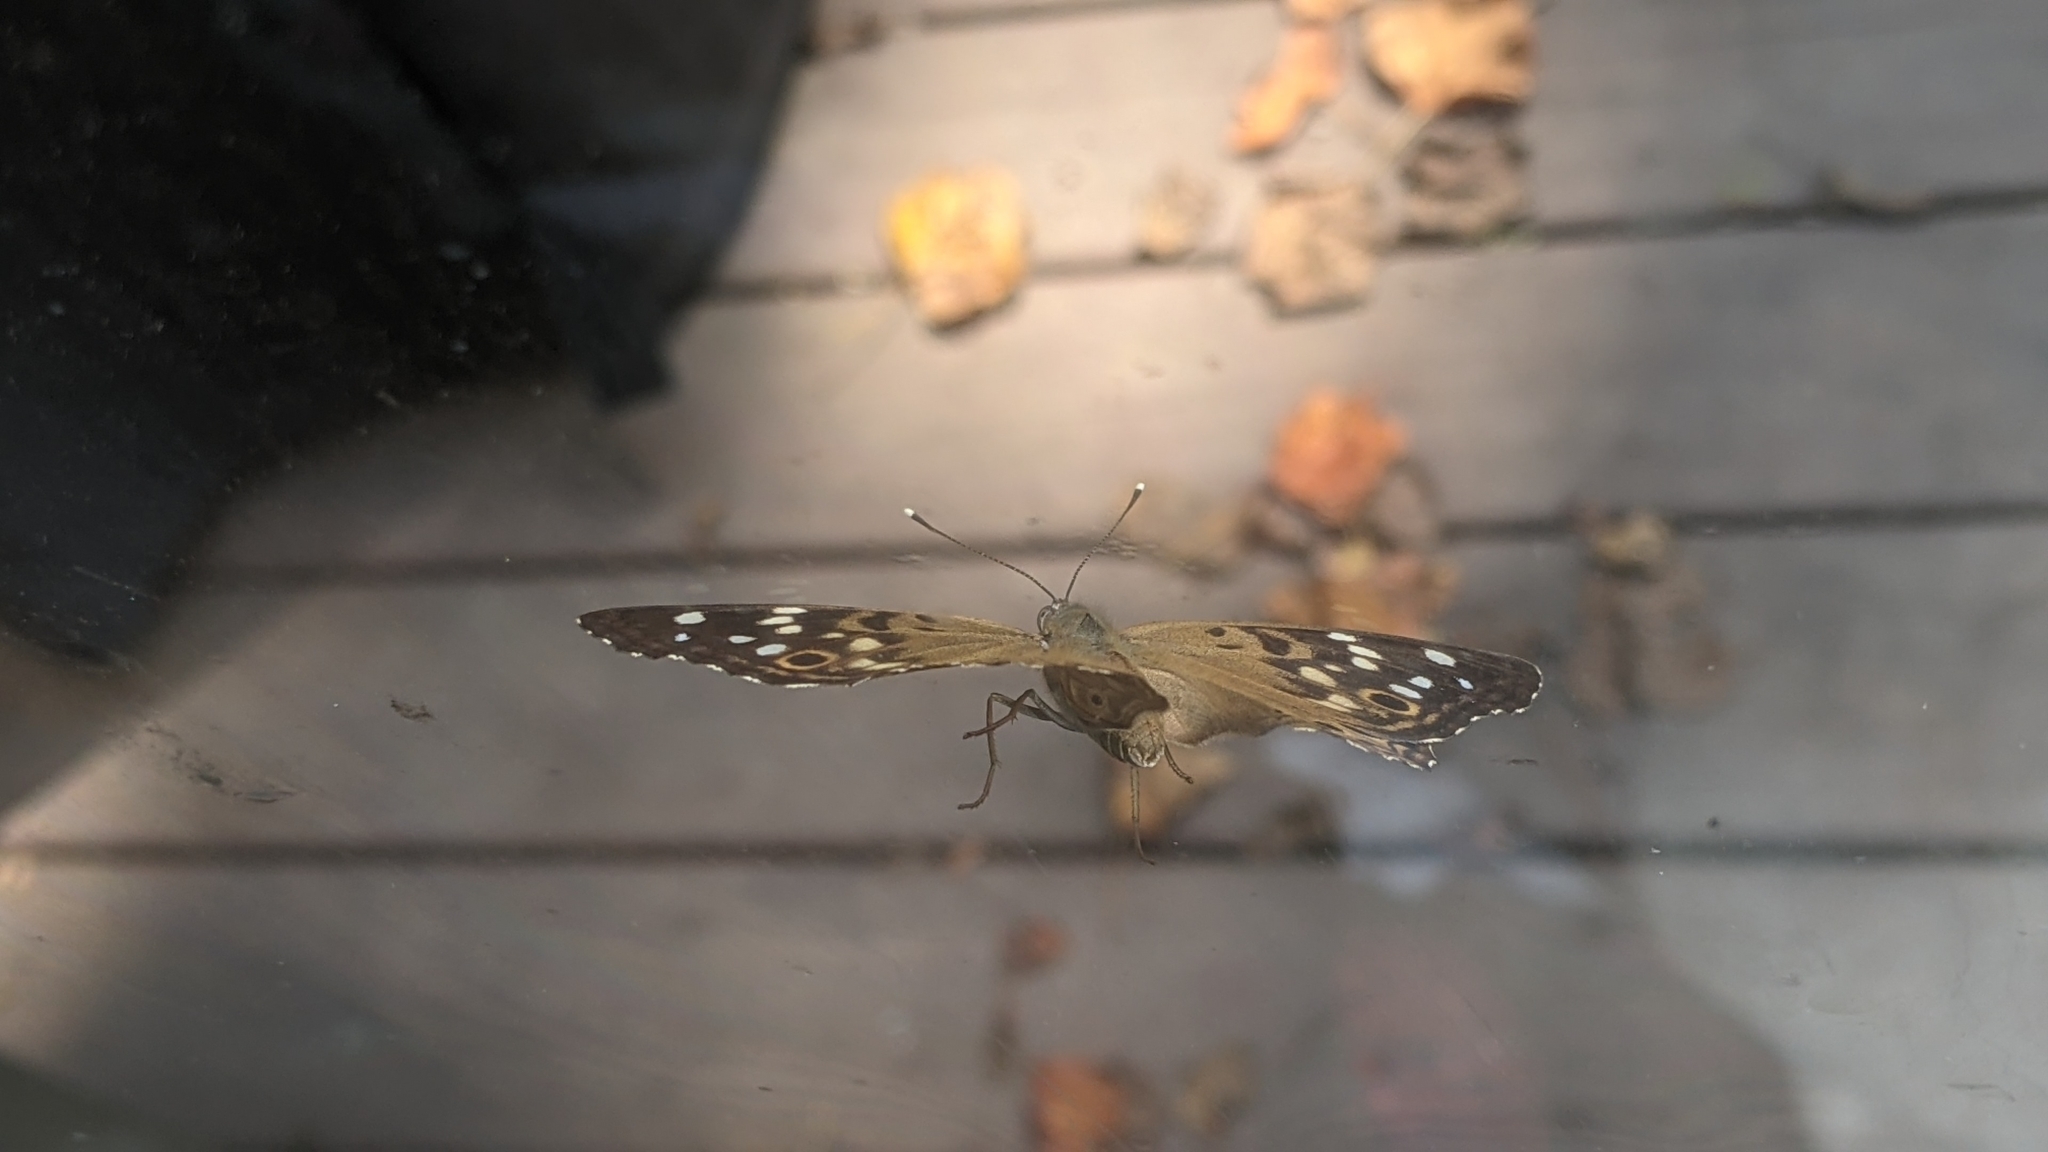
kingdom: Animalia
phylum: Arthropoda
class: Insecta
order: Lepidoptera
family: Nymphalidae
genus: Asterocampa
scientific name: Asterocampa celtis
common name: Hackberry emperor
